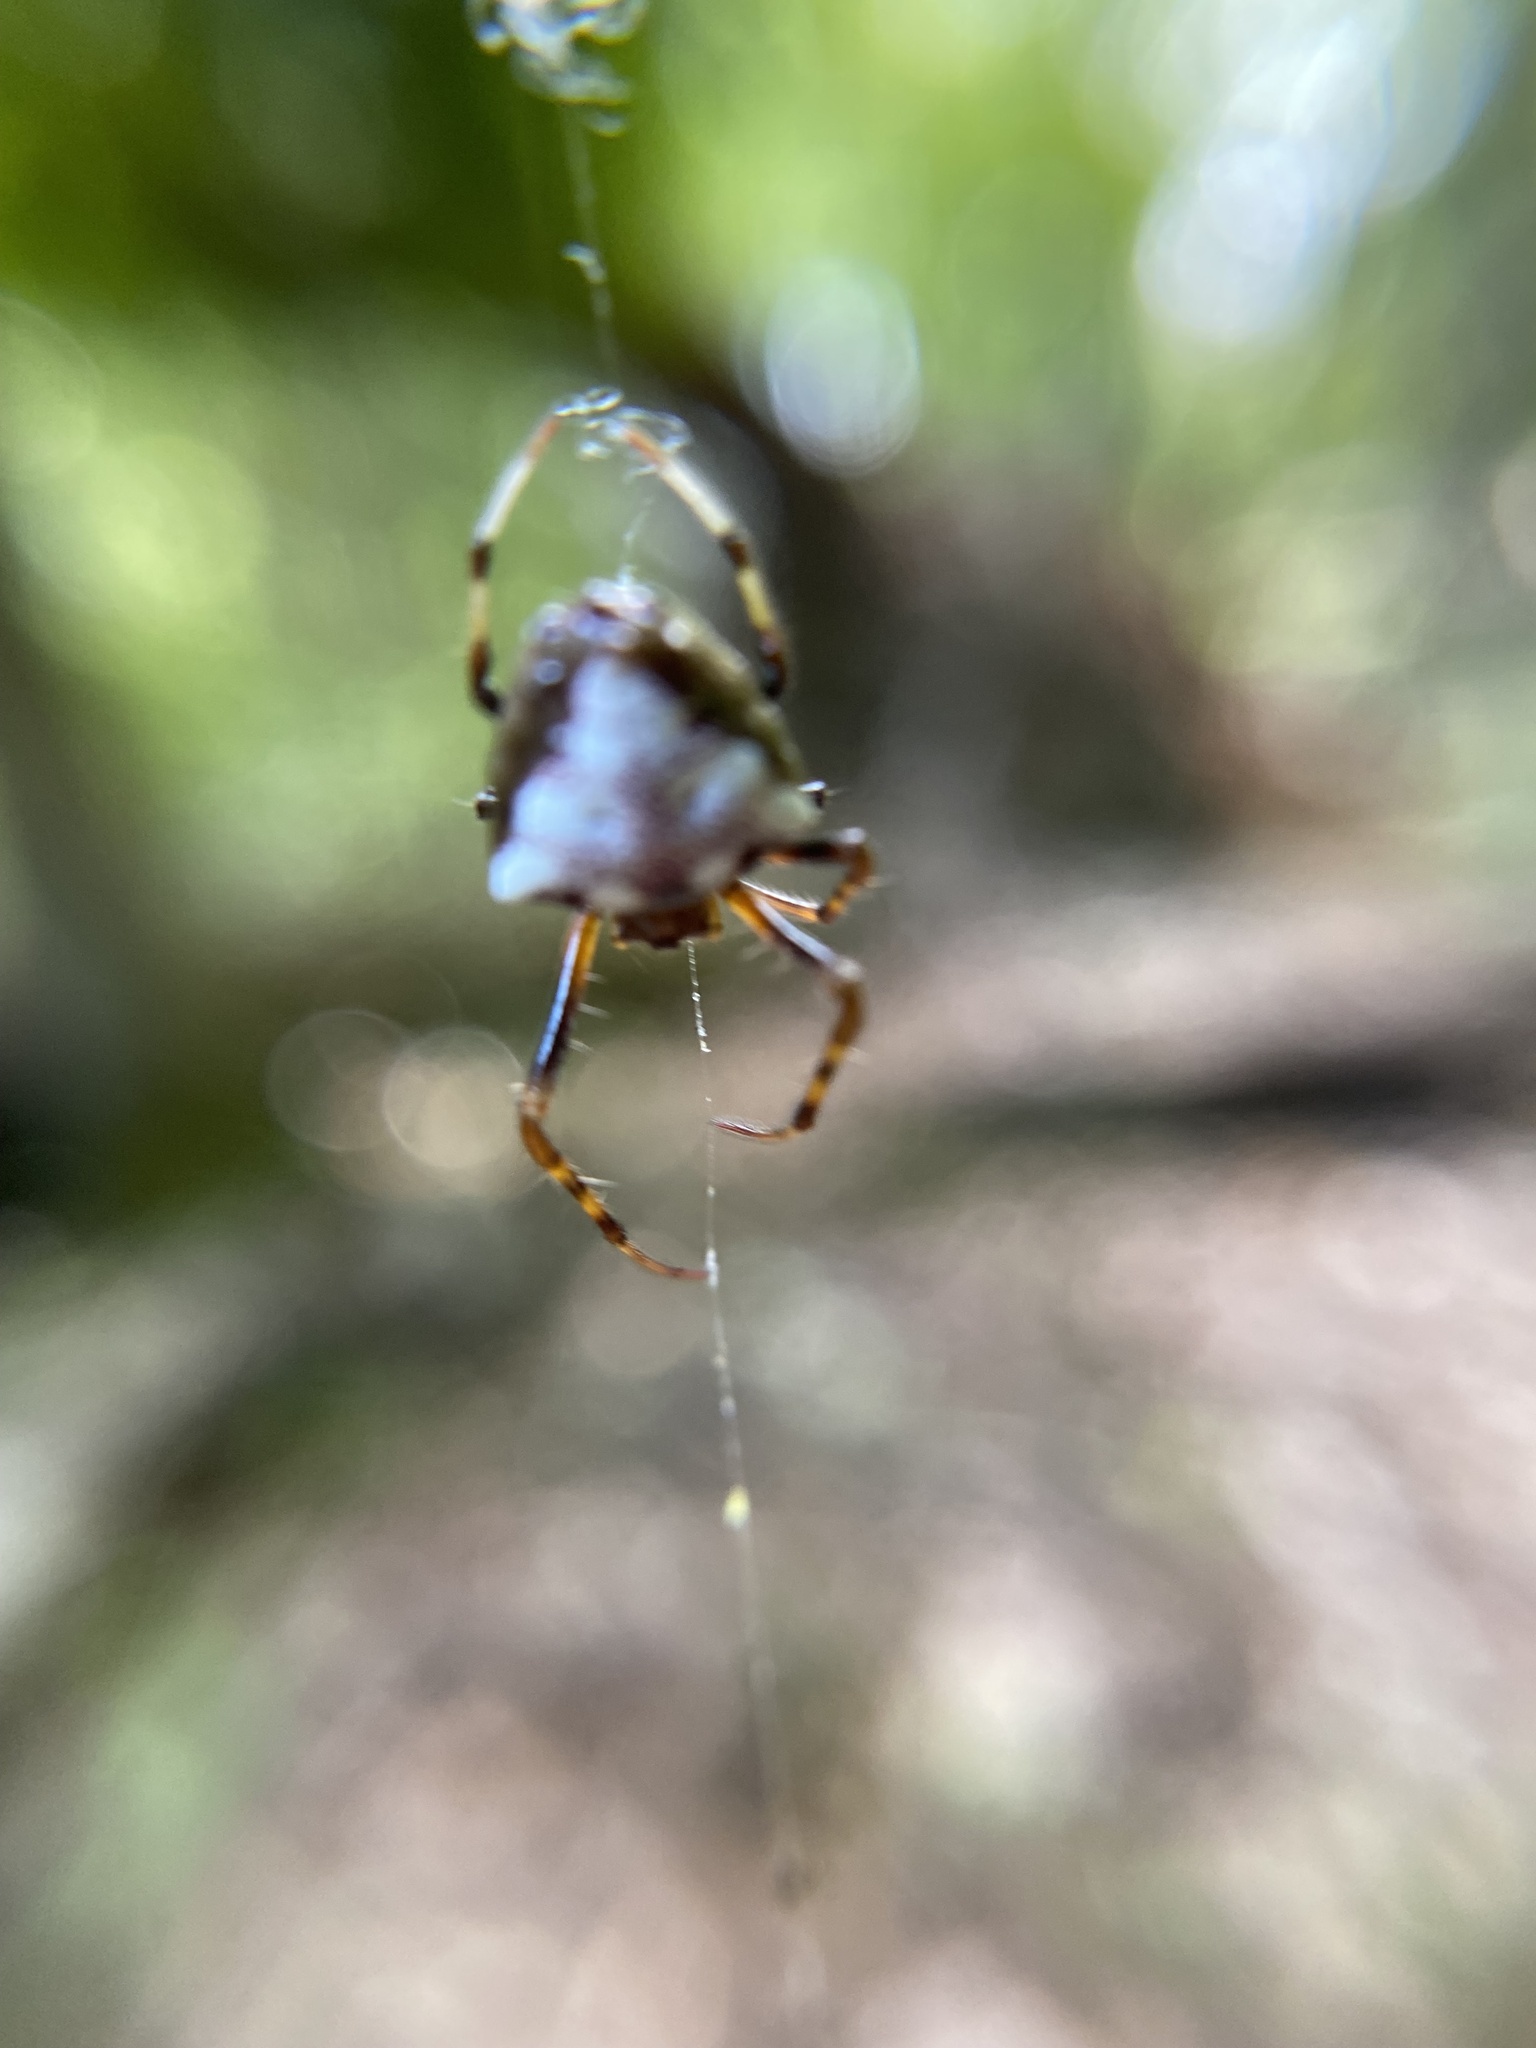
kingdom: Animalia
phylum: Arthropoda
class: Arachnida
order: Araneae
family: Araneidae
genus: Verrucosa
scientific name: Verrucosa arenata
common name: Orb weavers
